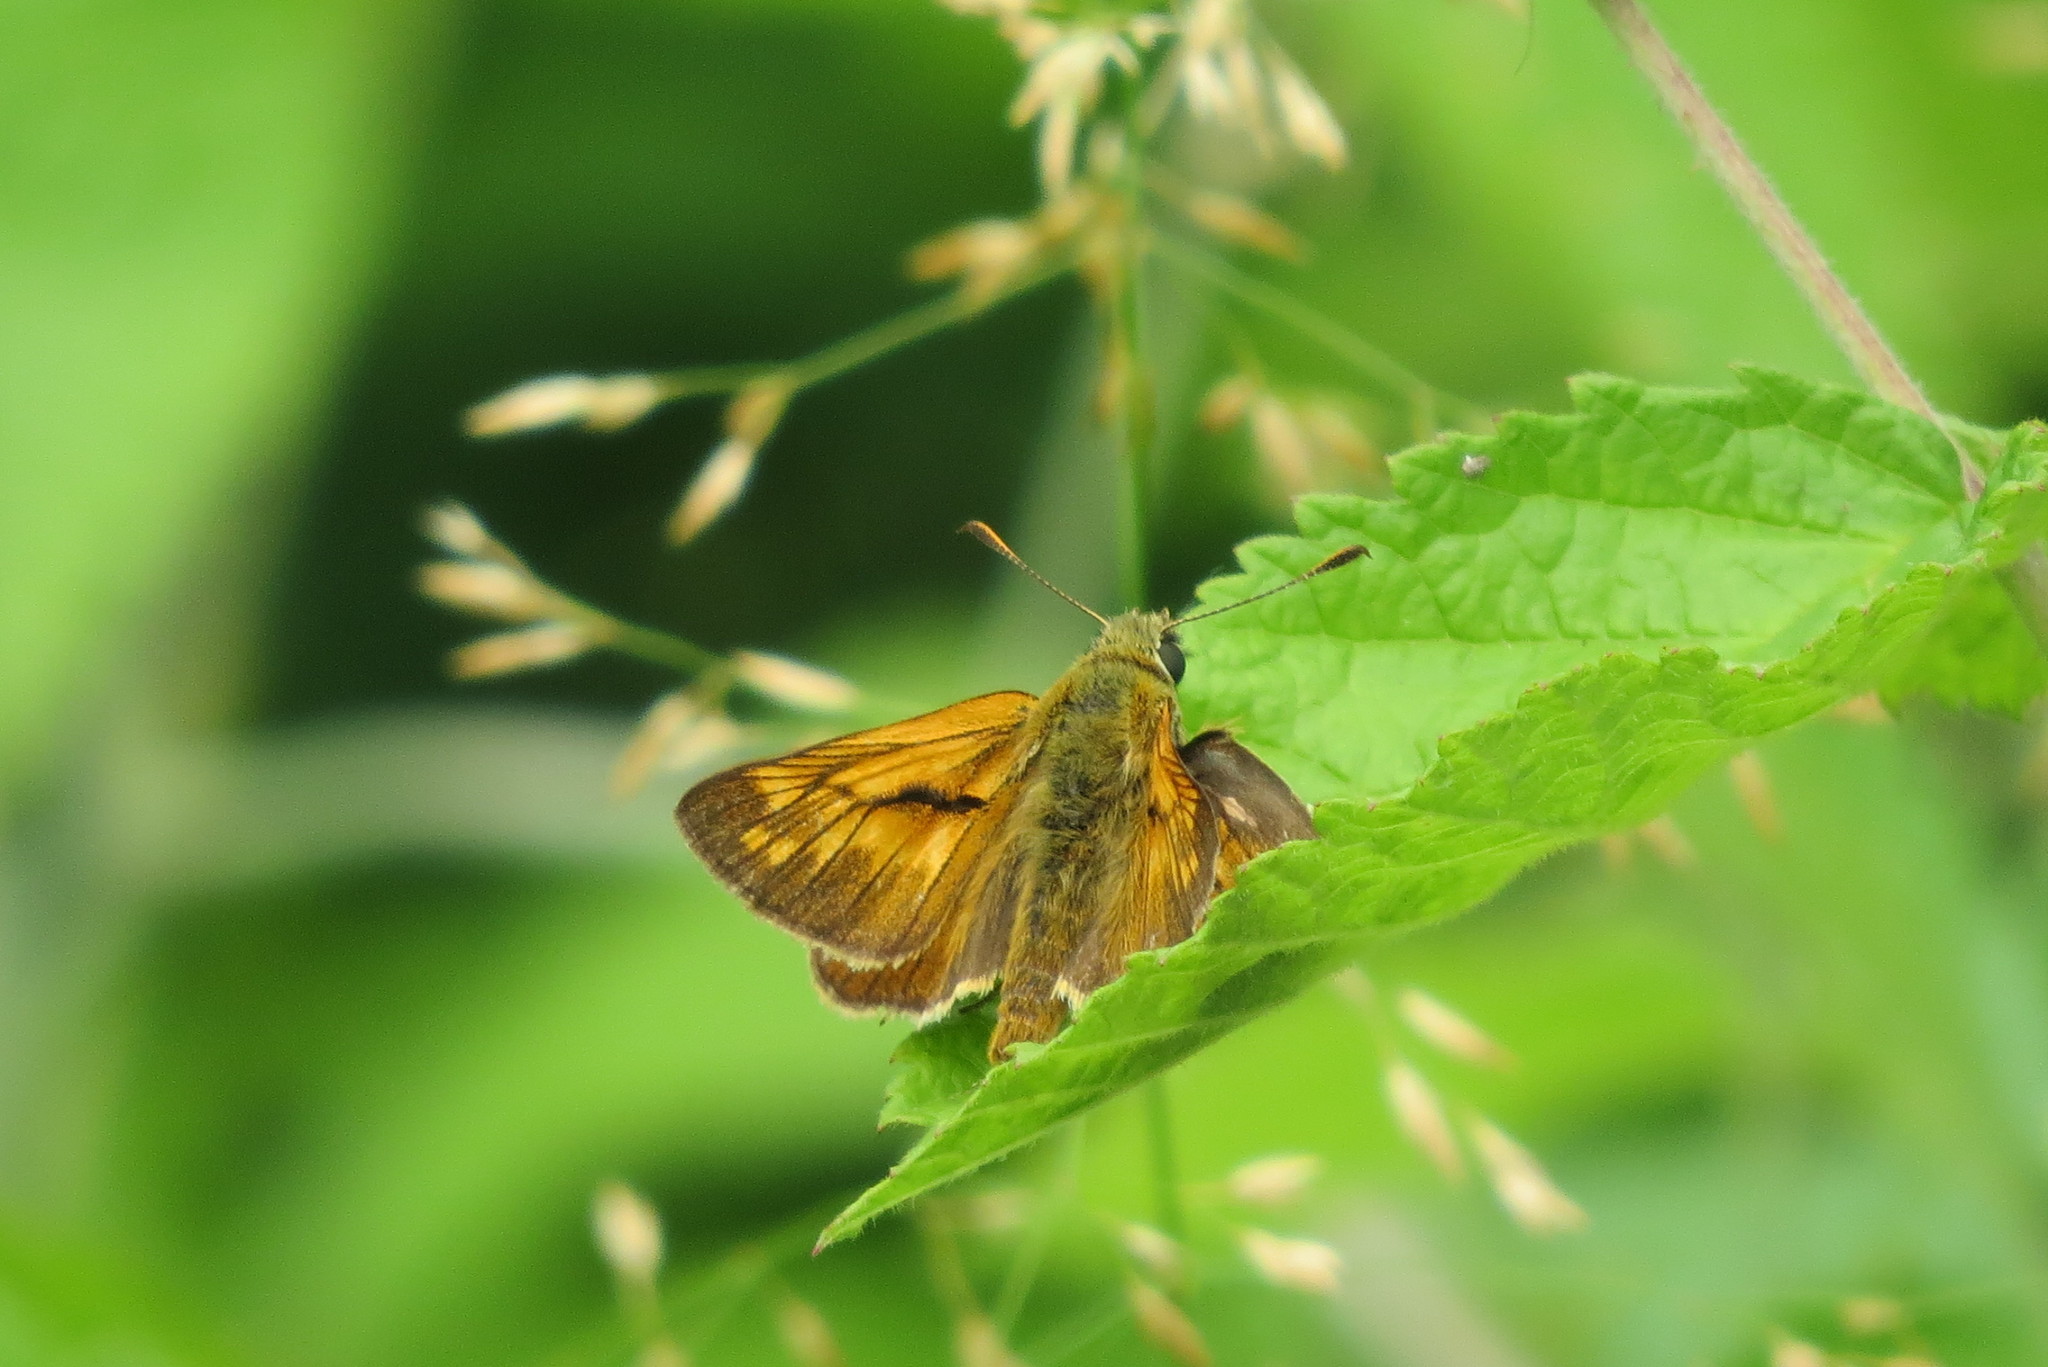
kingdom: Animalia
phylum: Arthropoda
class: Insecta
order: Lepidoptera
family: Hesperiidae
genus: Ochlodes
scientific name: Ochlodes venata
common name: Large skipper
